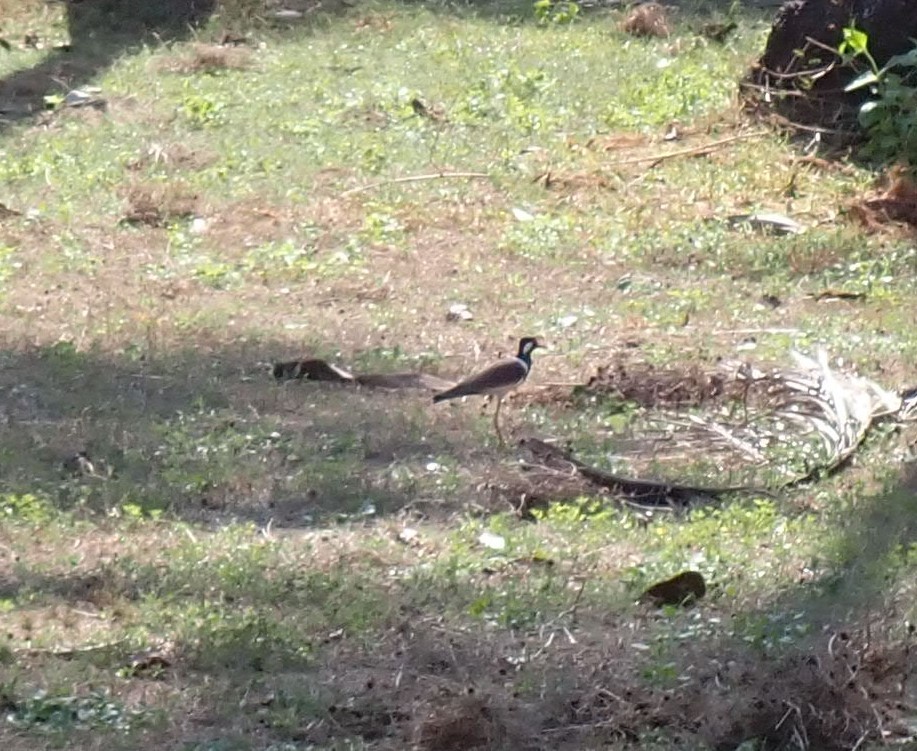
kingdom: Animalia
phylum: Chordata
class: Aves
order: Charadriiformes
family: Charadriidae
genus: Vanellus
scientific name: Vanellus indicus
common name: Red-wattled lapwing
